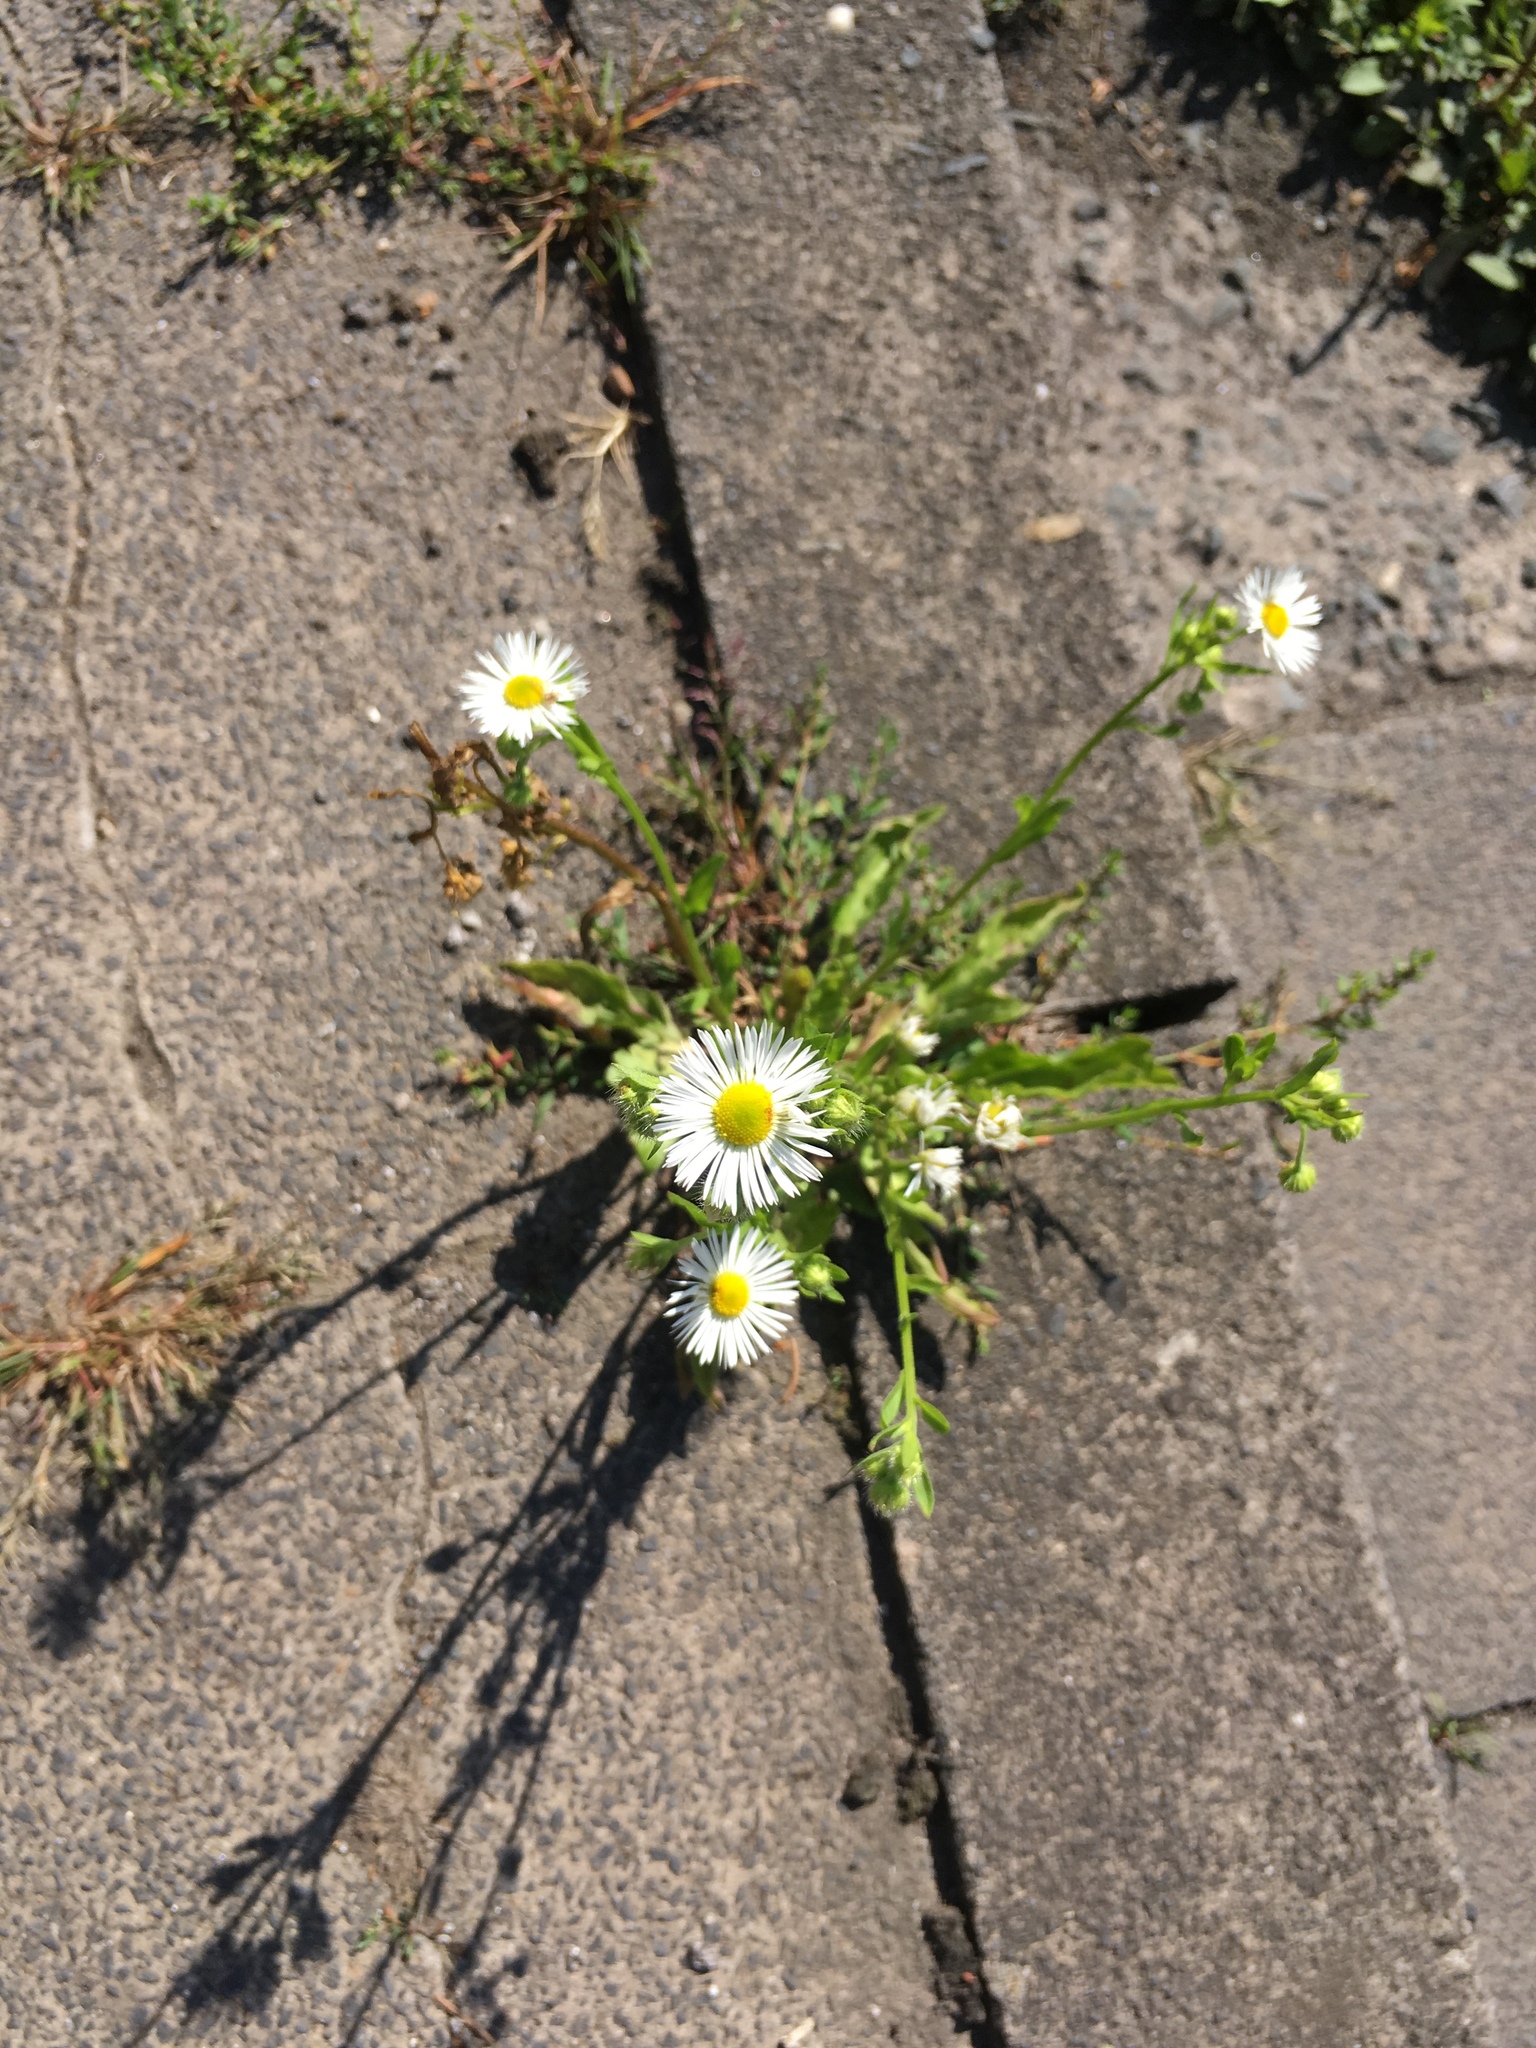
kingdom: Plantae
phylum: Tracheophyta
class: Magnoliopsida
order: Asterales
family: Asteraceae
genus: Erigeron
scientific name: Erigeron annuus
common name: Tall fleabane
